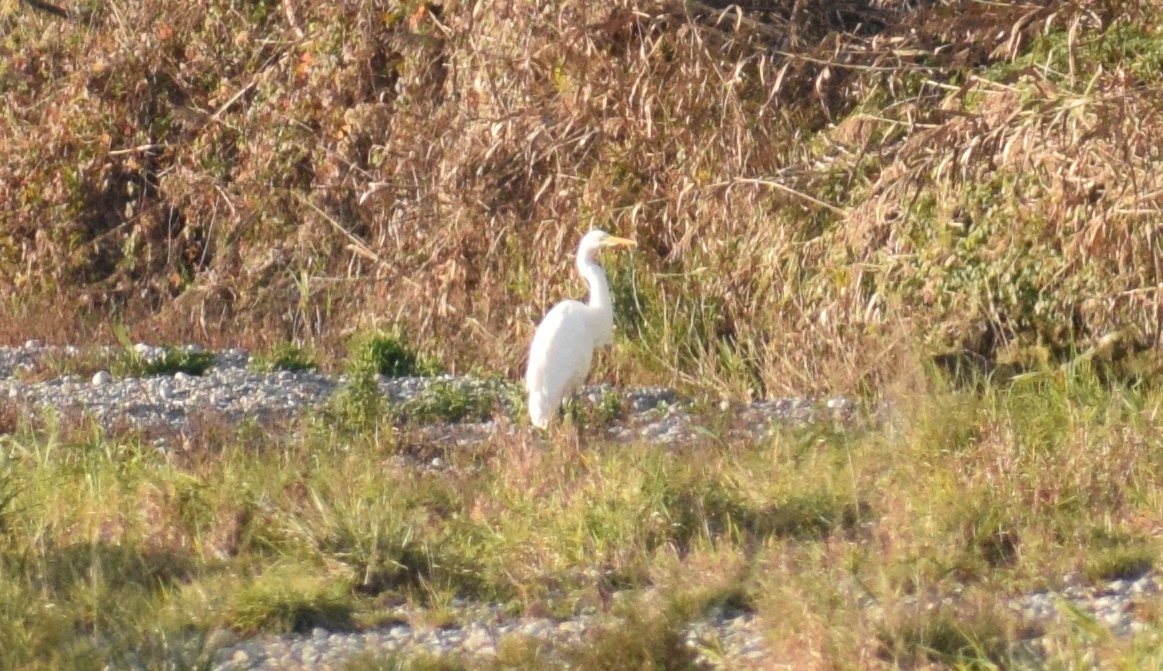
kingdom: Animalia
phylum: Chordata
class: Aves
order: Pelecaniformes
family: Ardeidae
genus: Ardea
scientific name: Ardea alba
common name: Great egret
